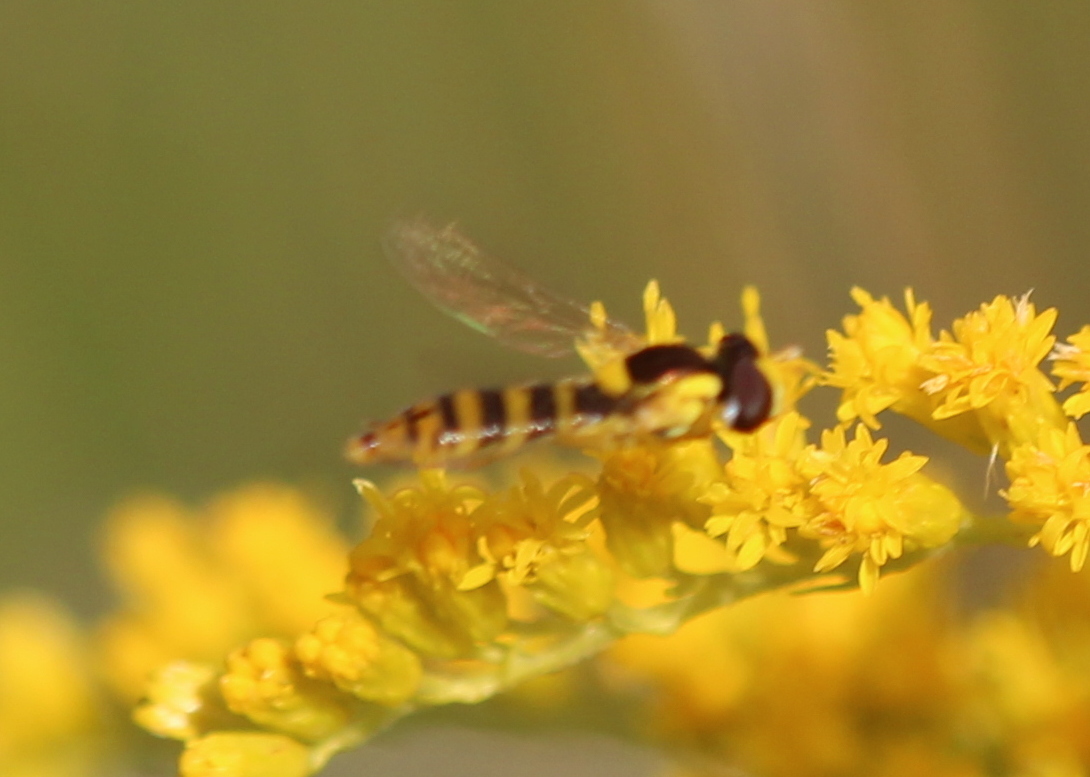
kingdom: Animalia
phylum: Arthropoda
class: Insecta
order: Diptera
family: Syrphidae
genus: Sphaerophoria
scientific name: Sphaerophoria
